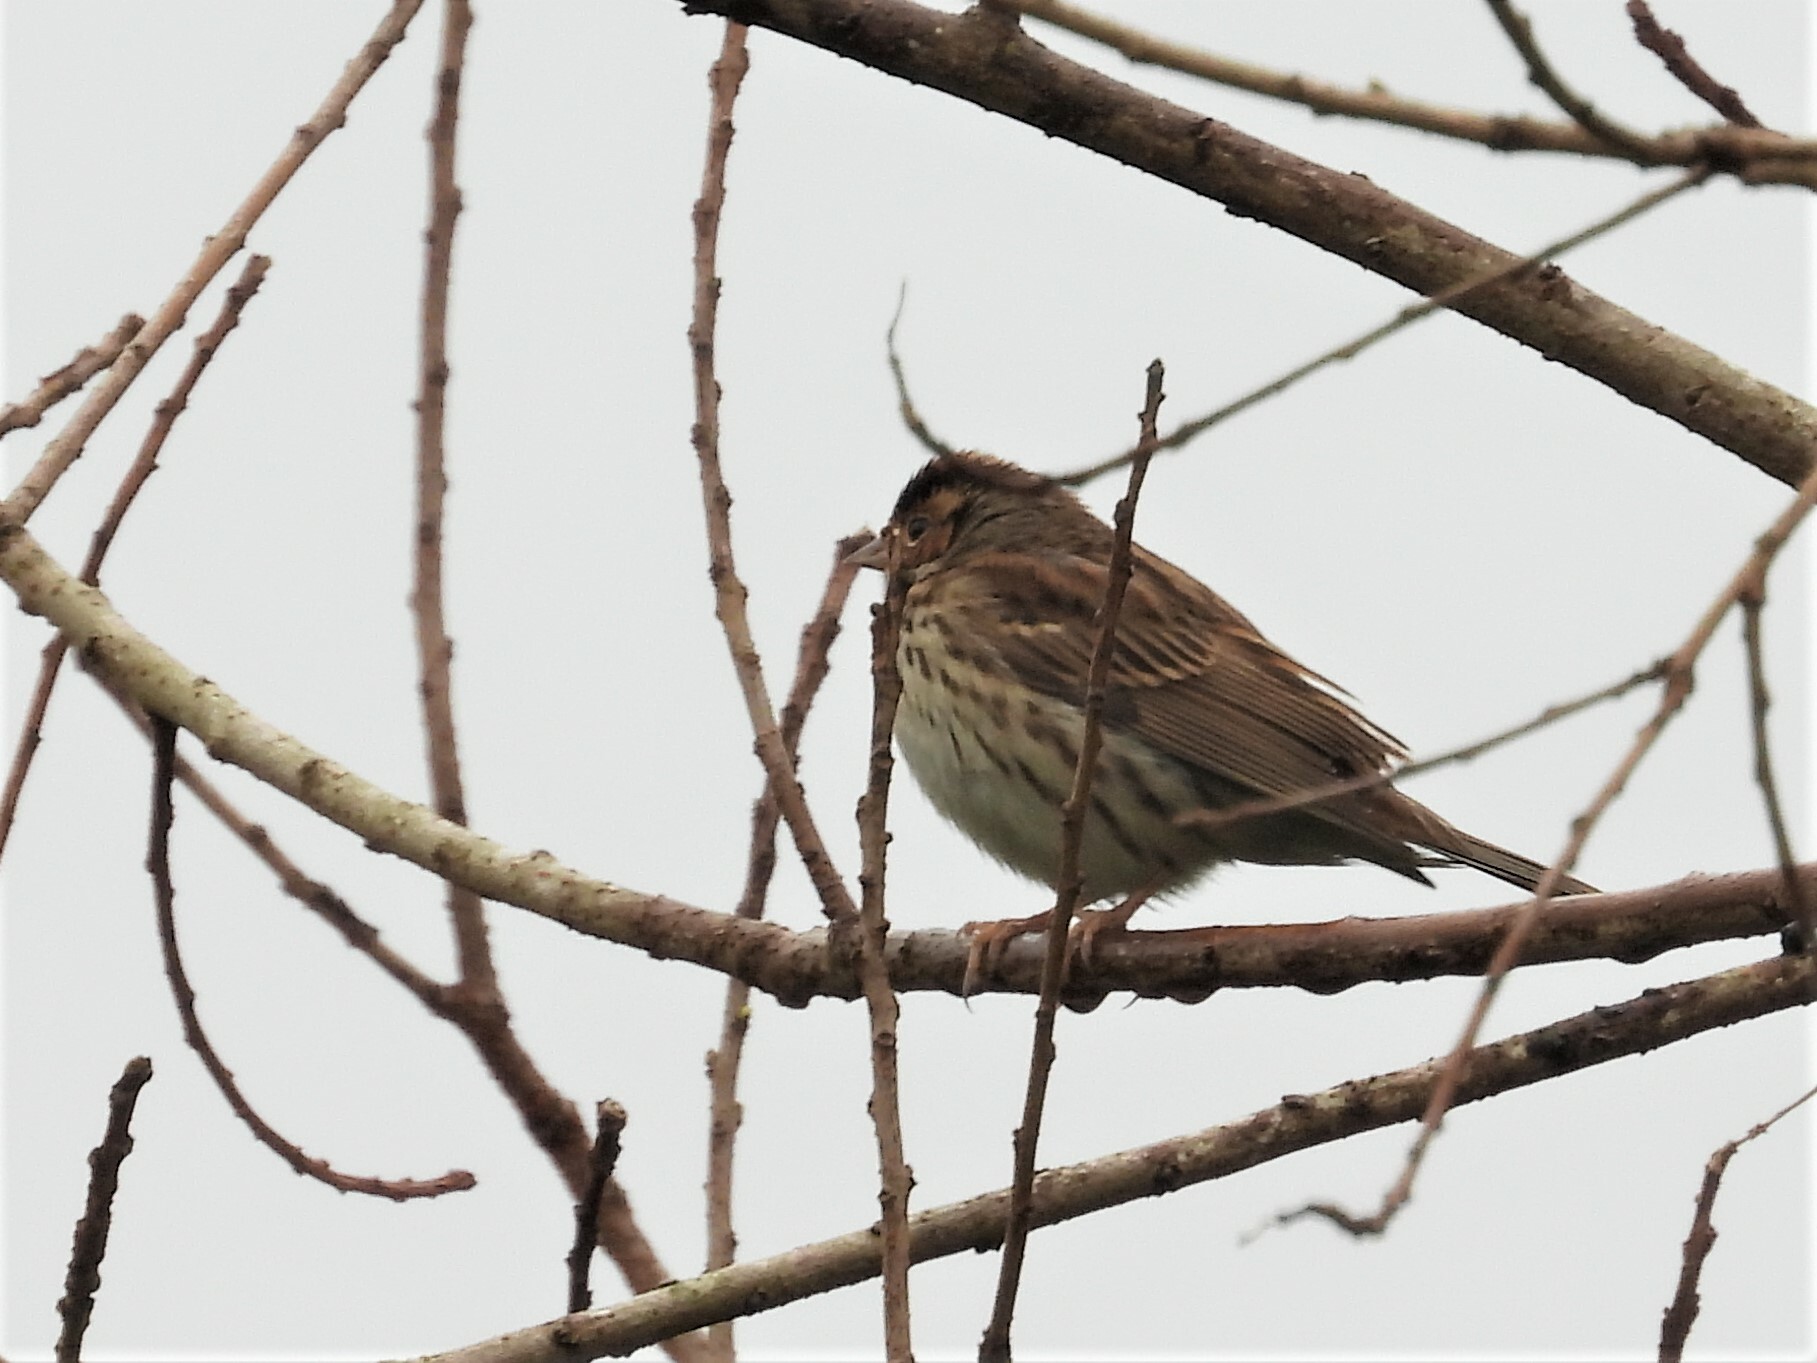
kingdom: Animalia
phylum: Chordata
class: Aves
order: Passeriformes
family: Emberizidae
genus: Emberiza
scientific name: Emberiza pusilla
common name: Little bunting
